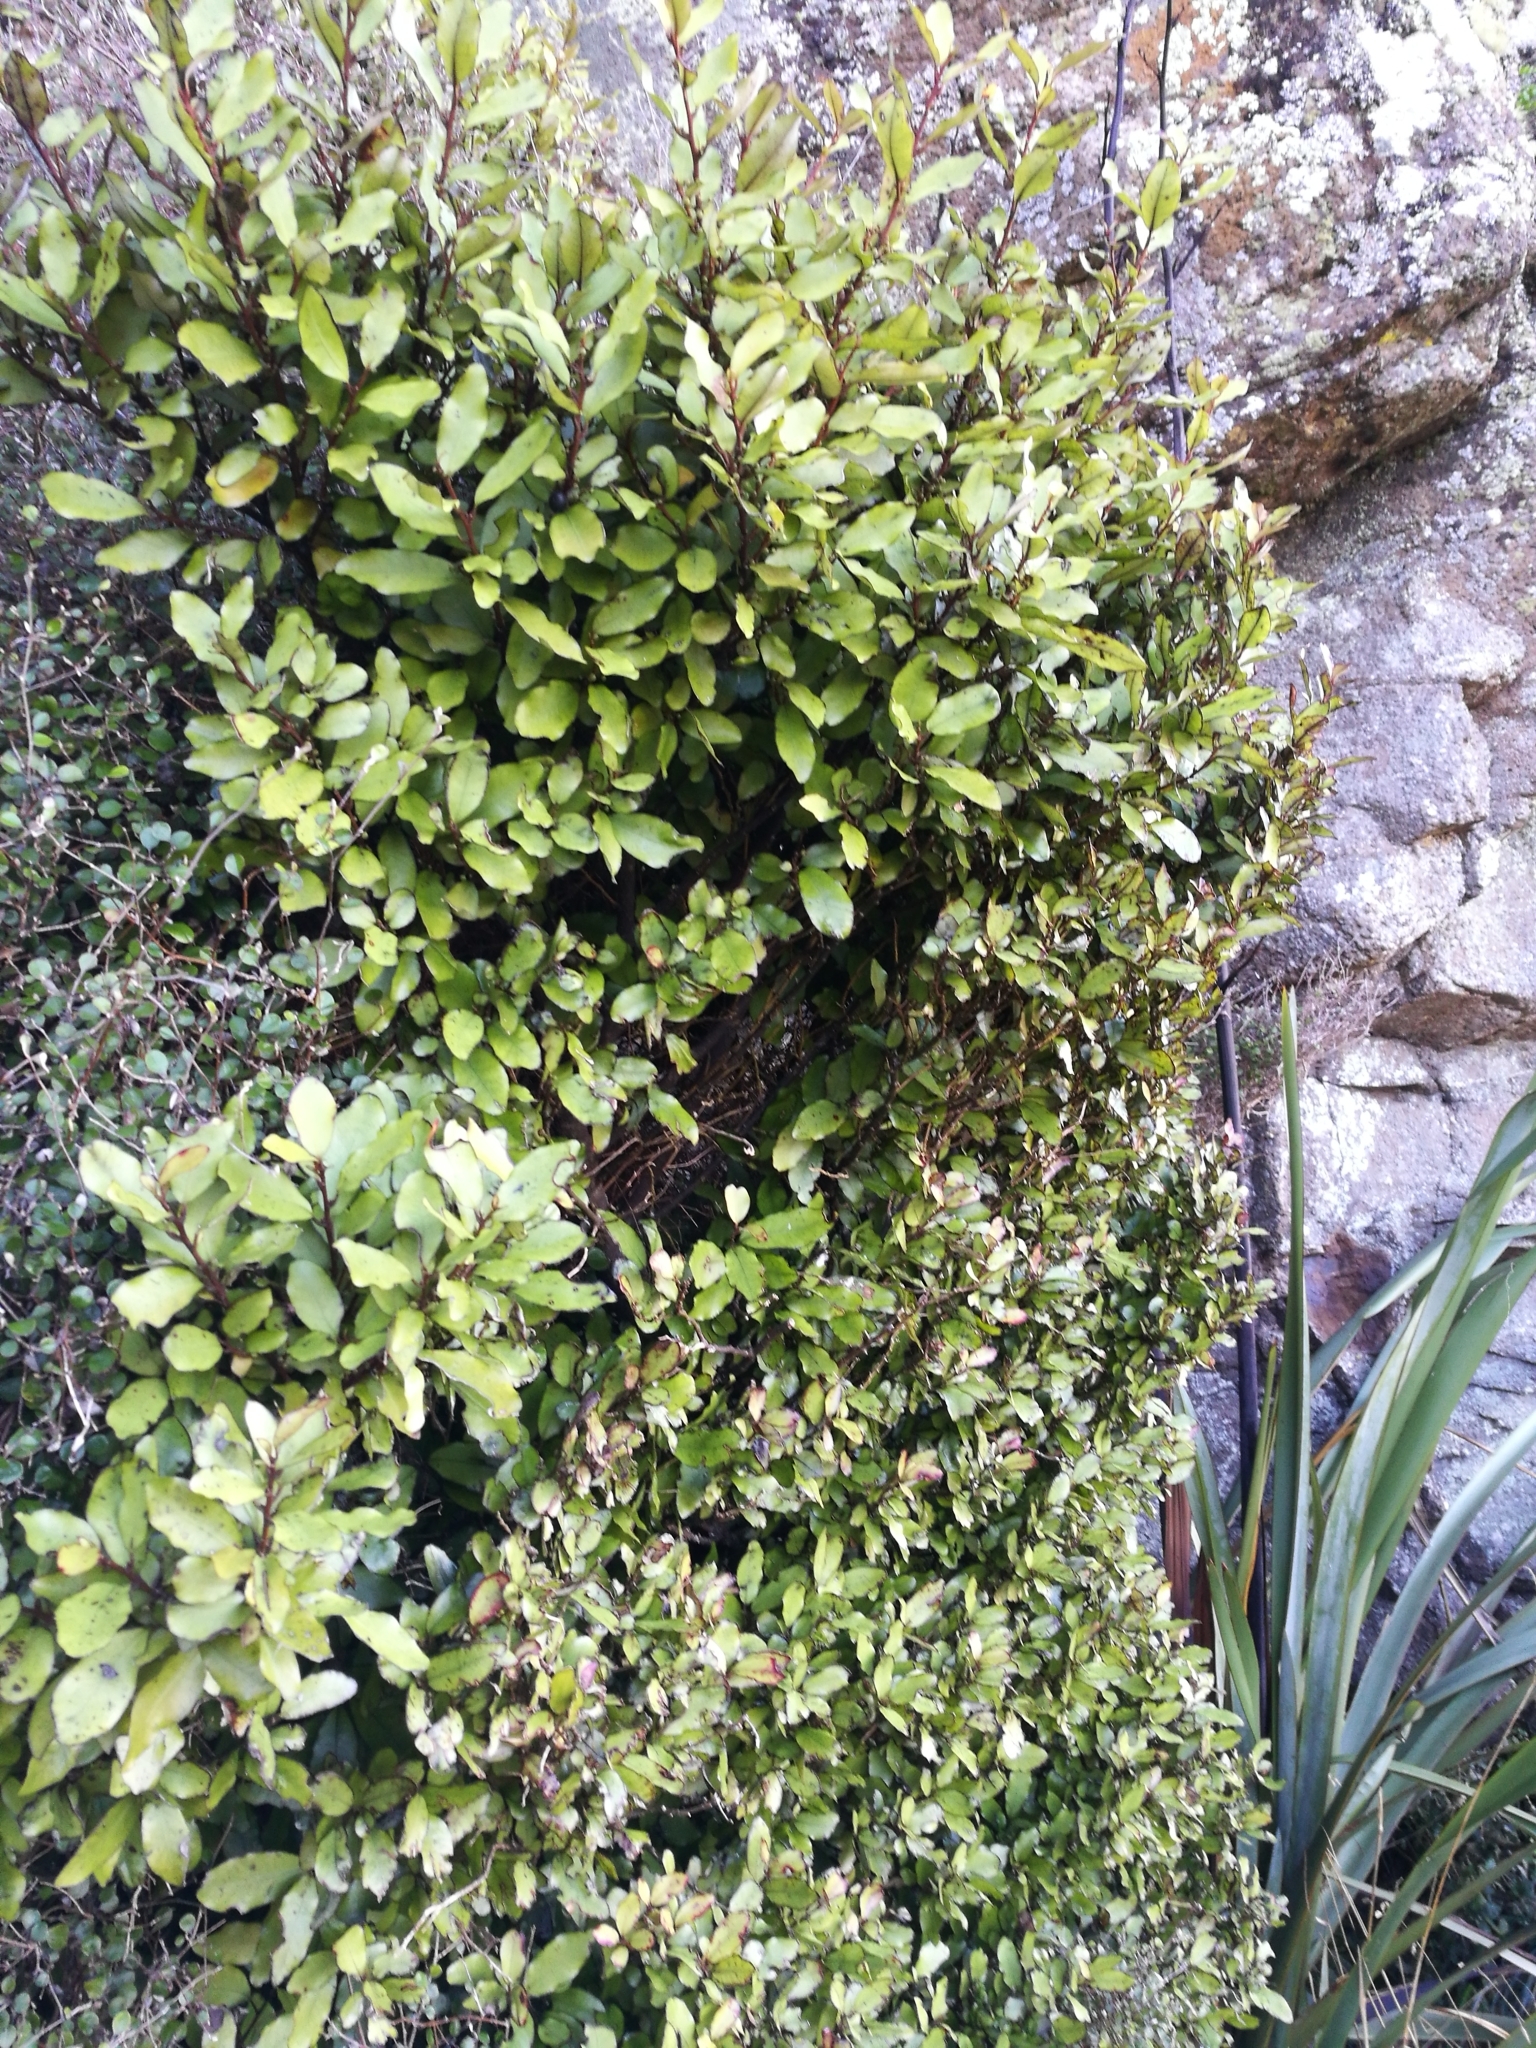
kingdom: Plantae
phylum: Tracheophyta
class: Magnoliopsida
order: Canellales
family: Winteraceae
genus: Pseudowintera
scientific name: Pseudowintera colorata
